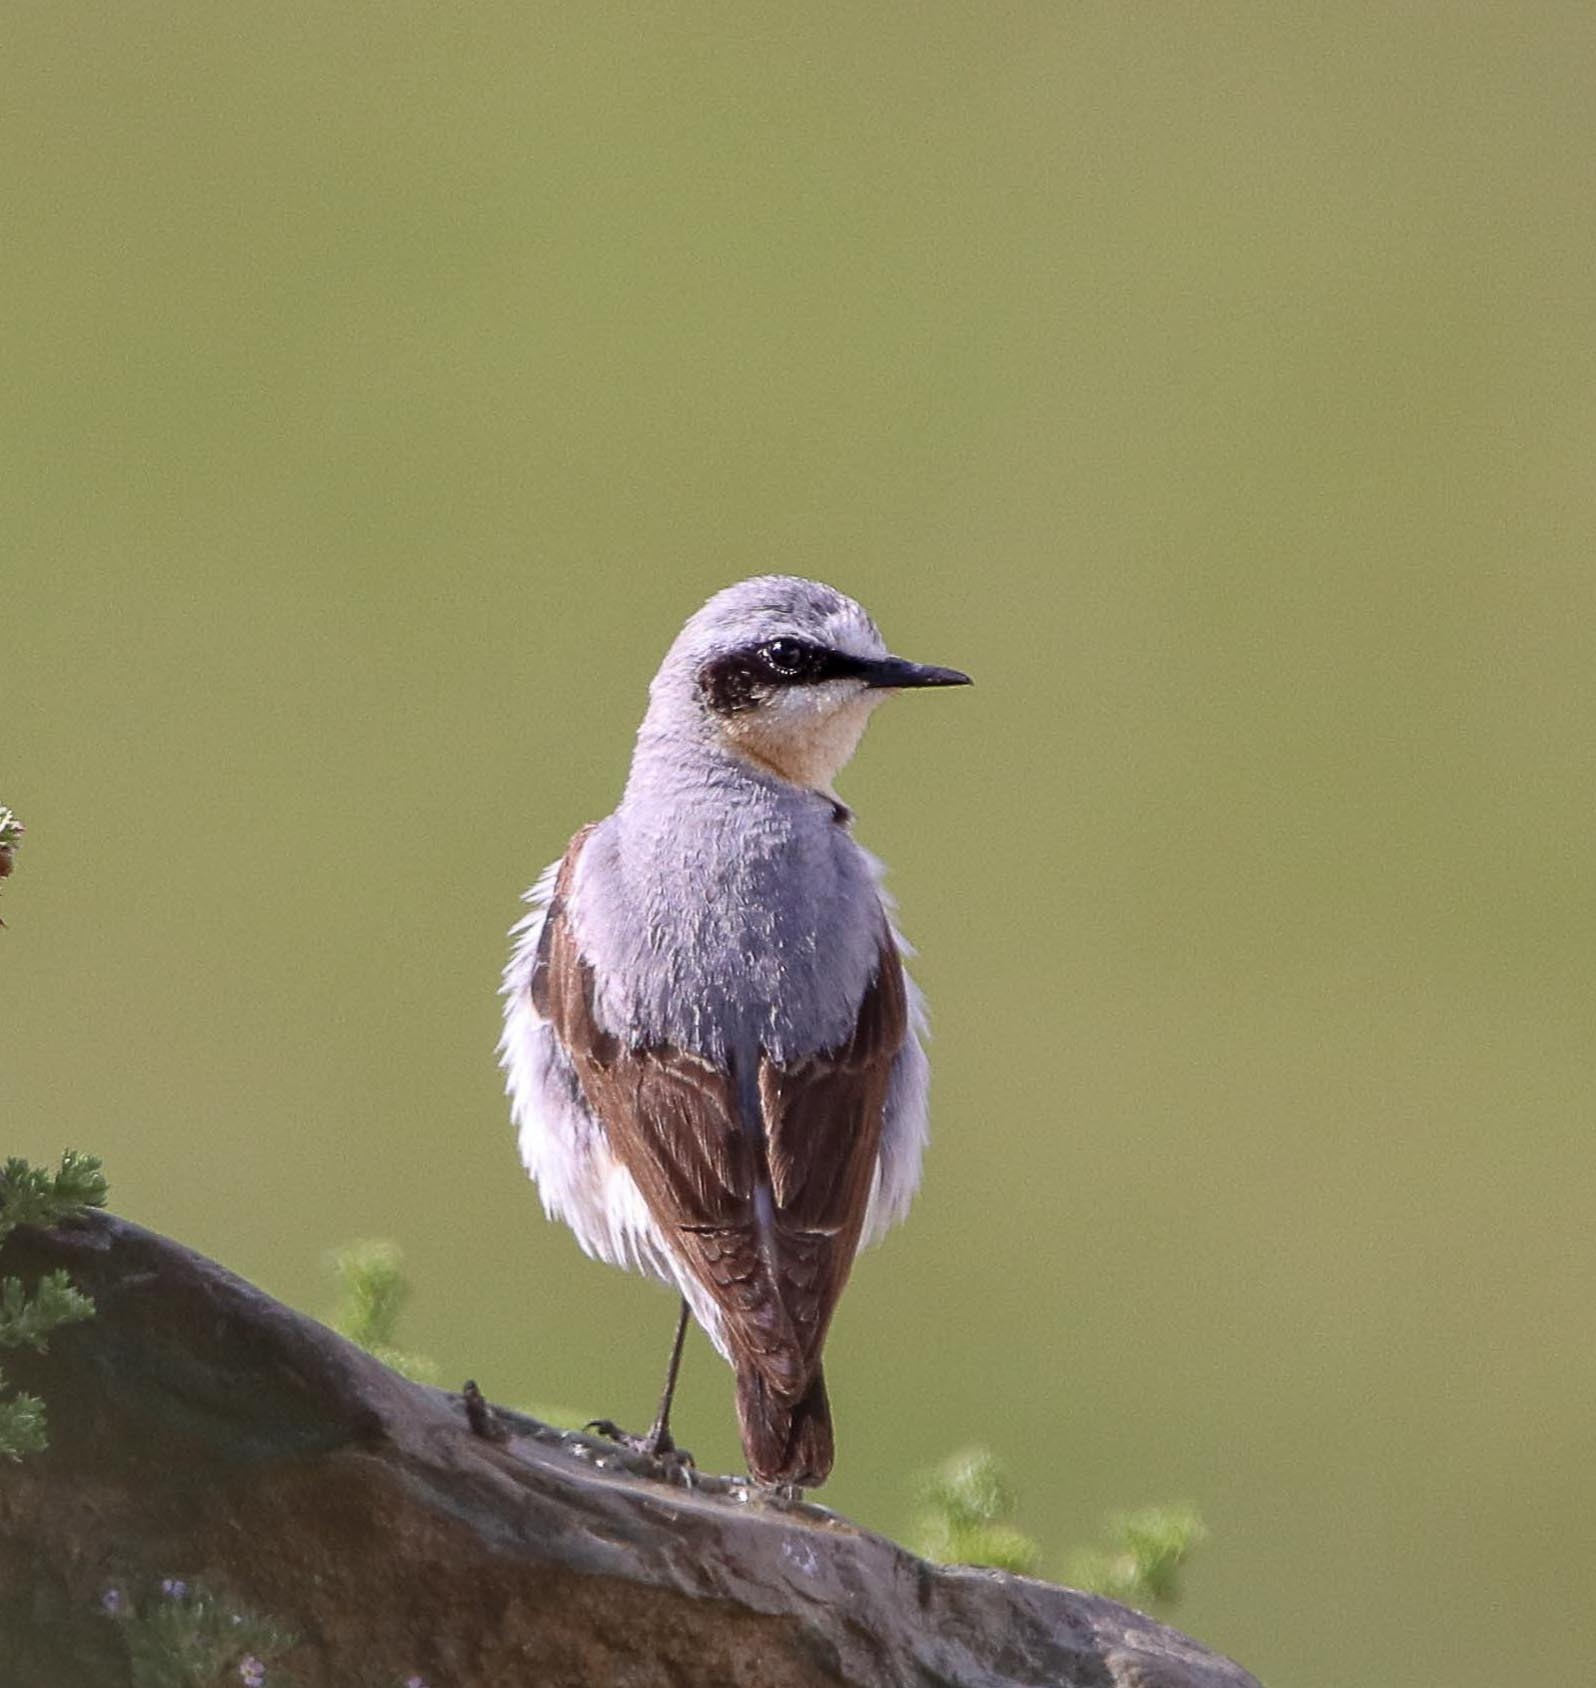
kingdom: Animalia
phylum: Chordata
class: Aves
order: Passeriformes
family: Muscicapidae
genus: Oenanthe
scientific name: Oenanthe oenanthe
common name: Northern wheatear
